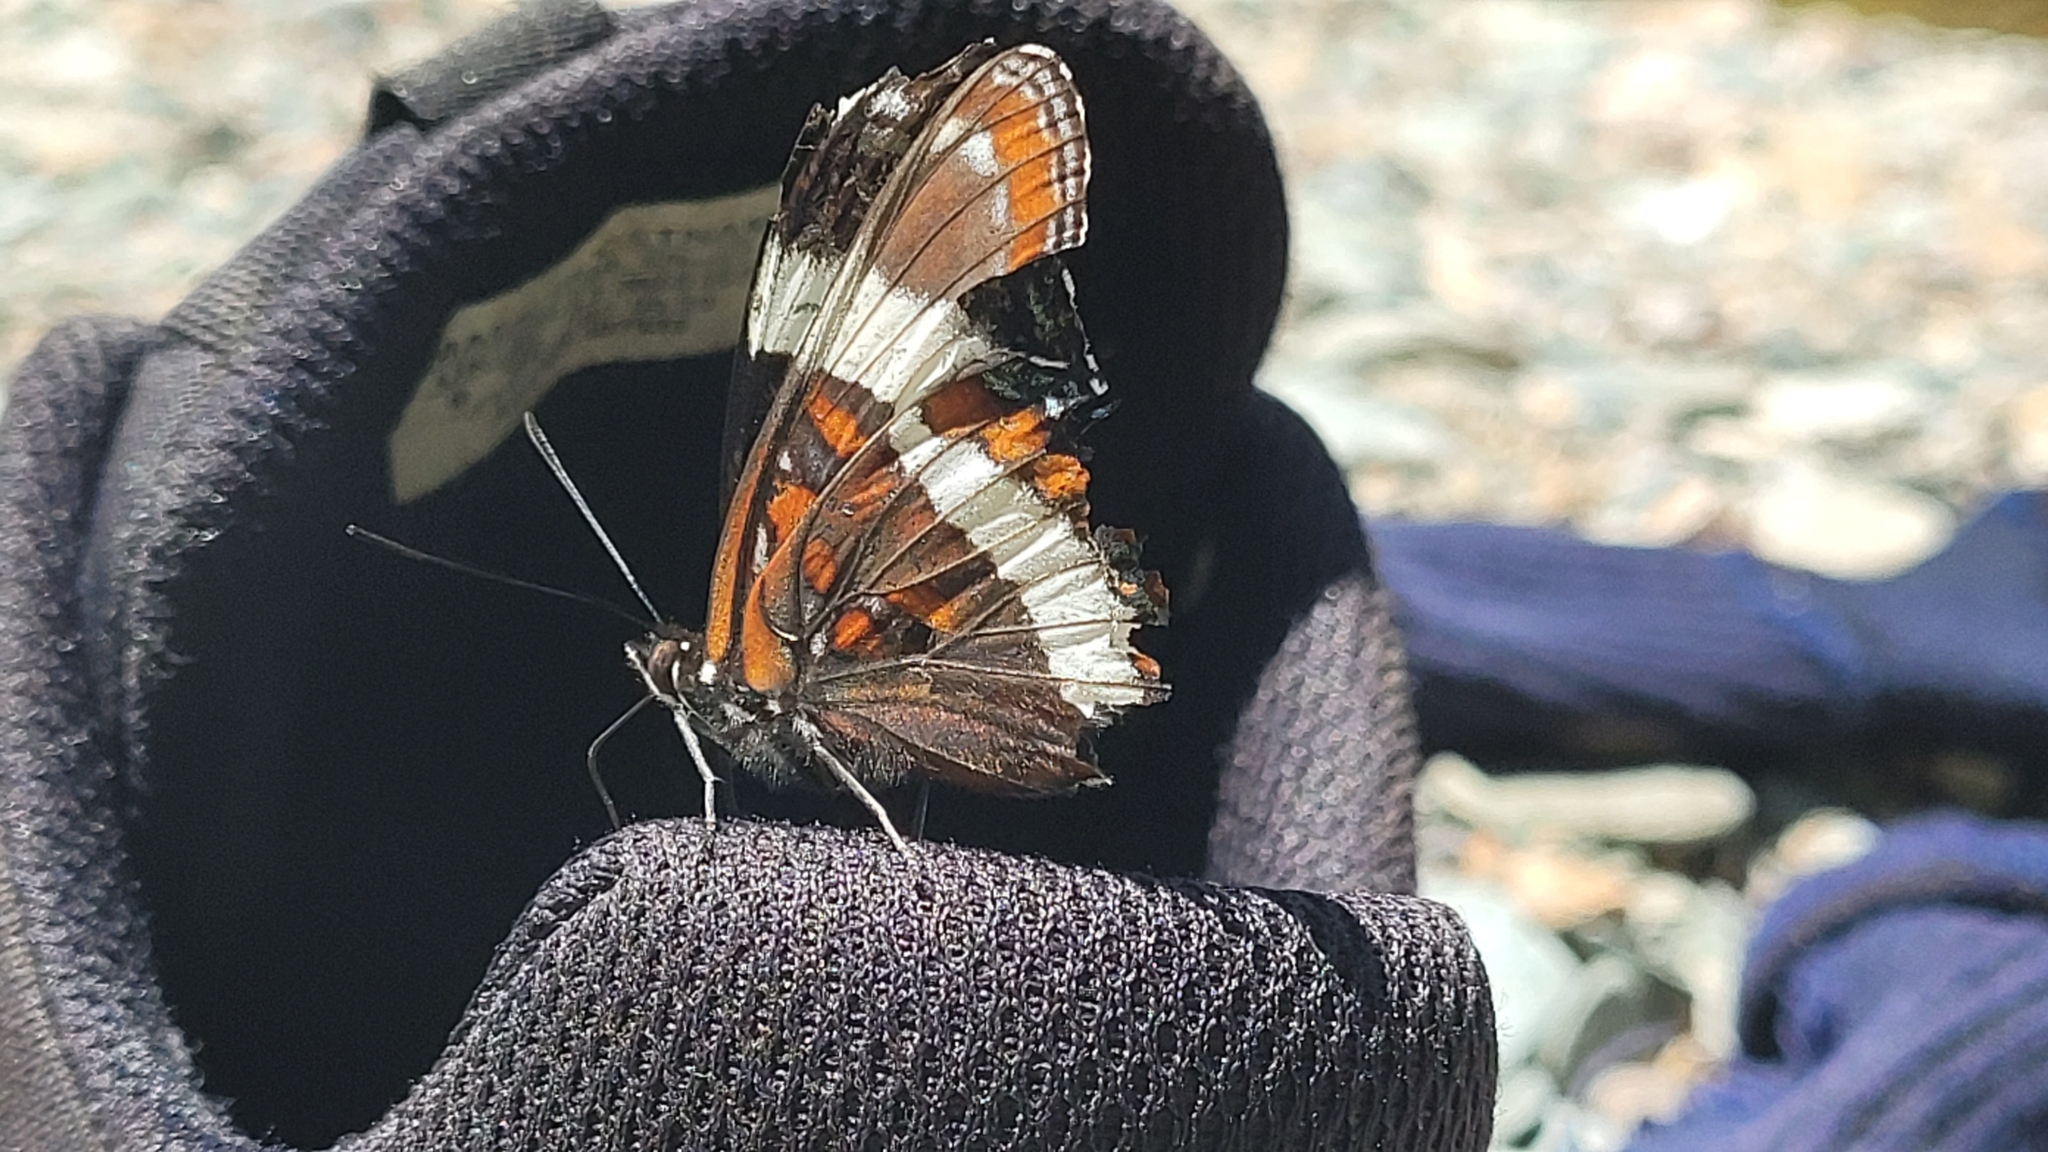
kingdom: Animalia
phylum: Arthropoda
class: Insecta
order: Lepidoptera
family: Nymphalidae
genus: Limenitis
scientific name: Limenitis arthemis
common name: Red-spotted admiral
